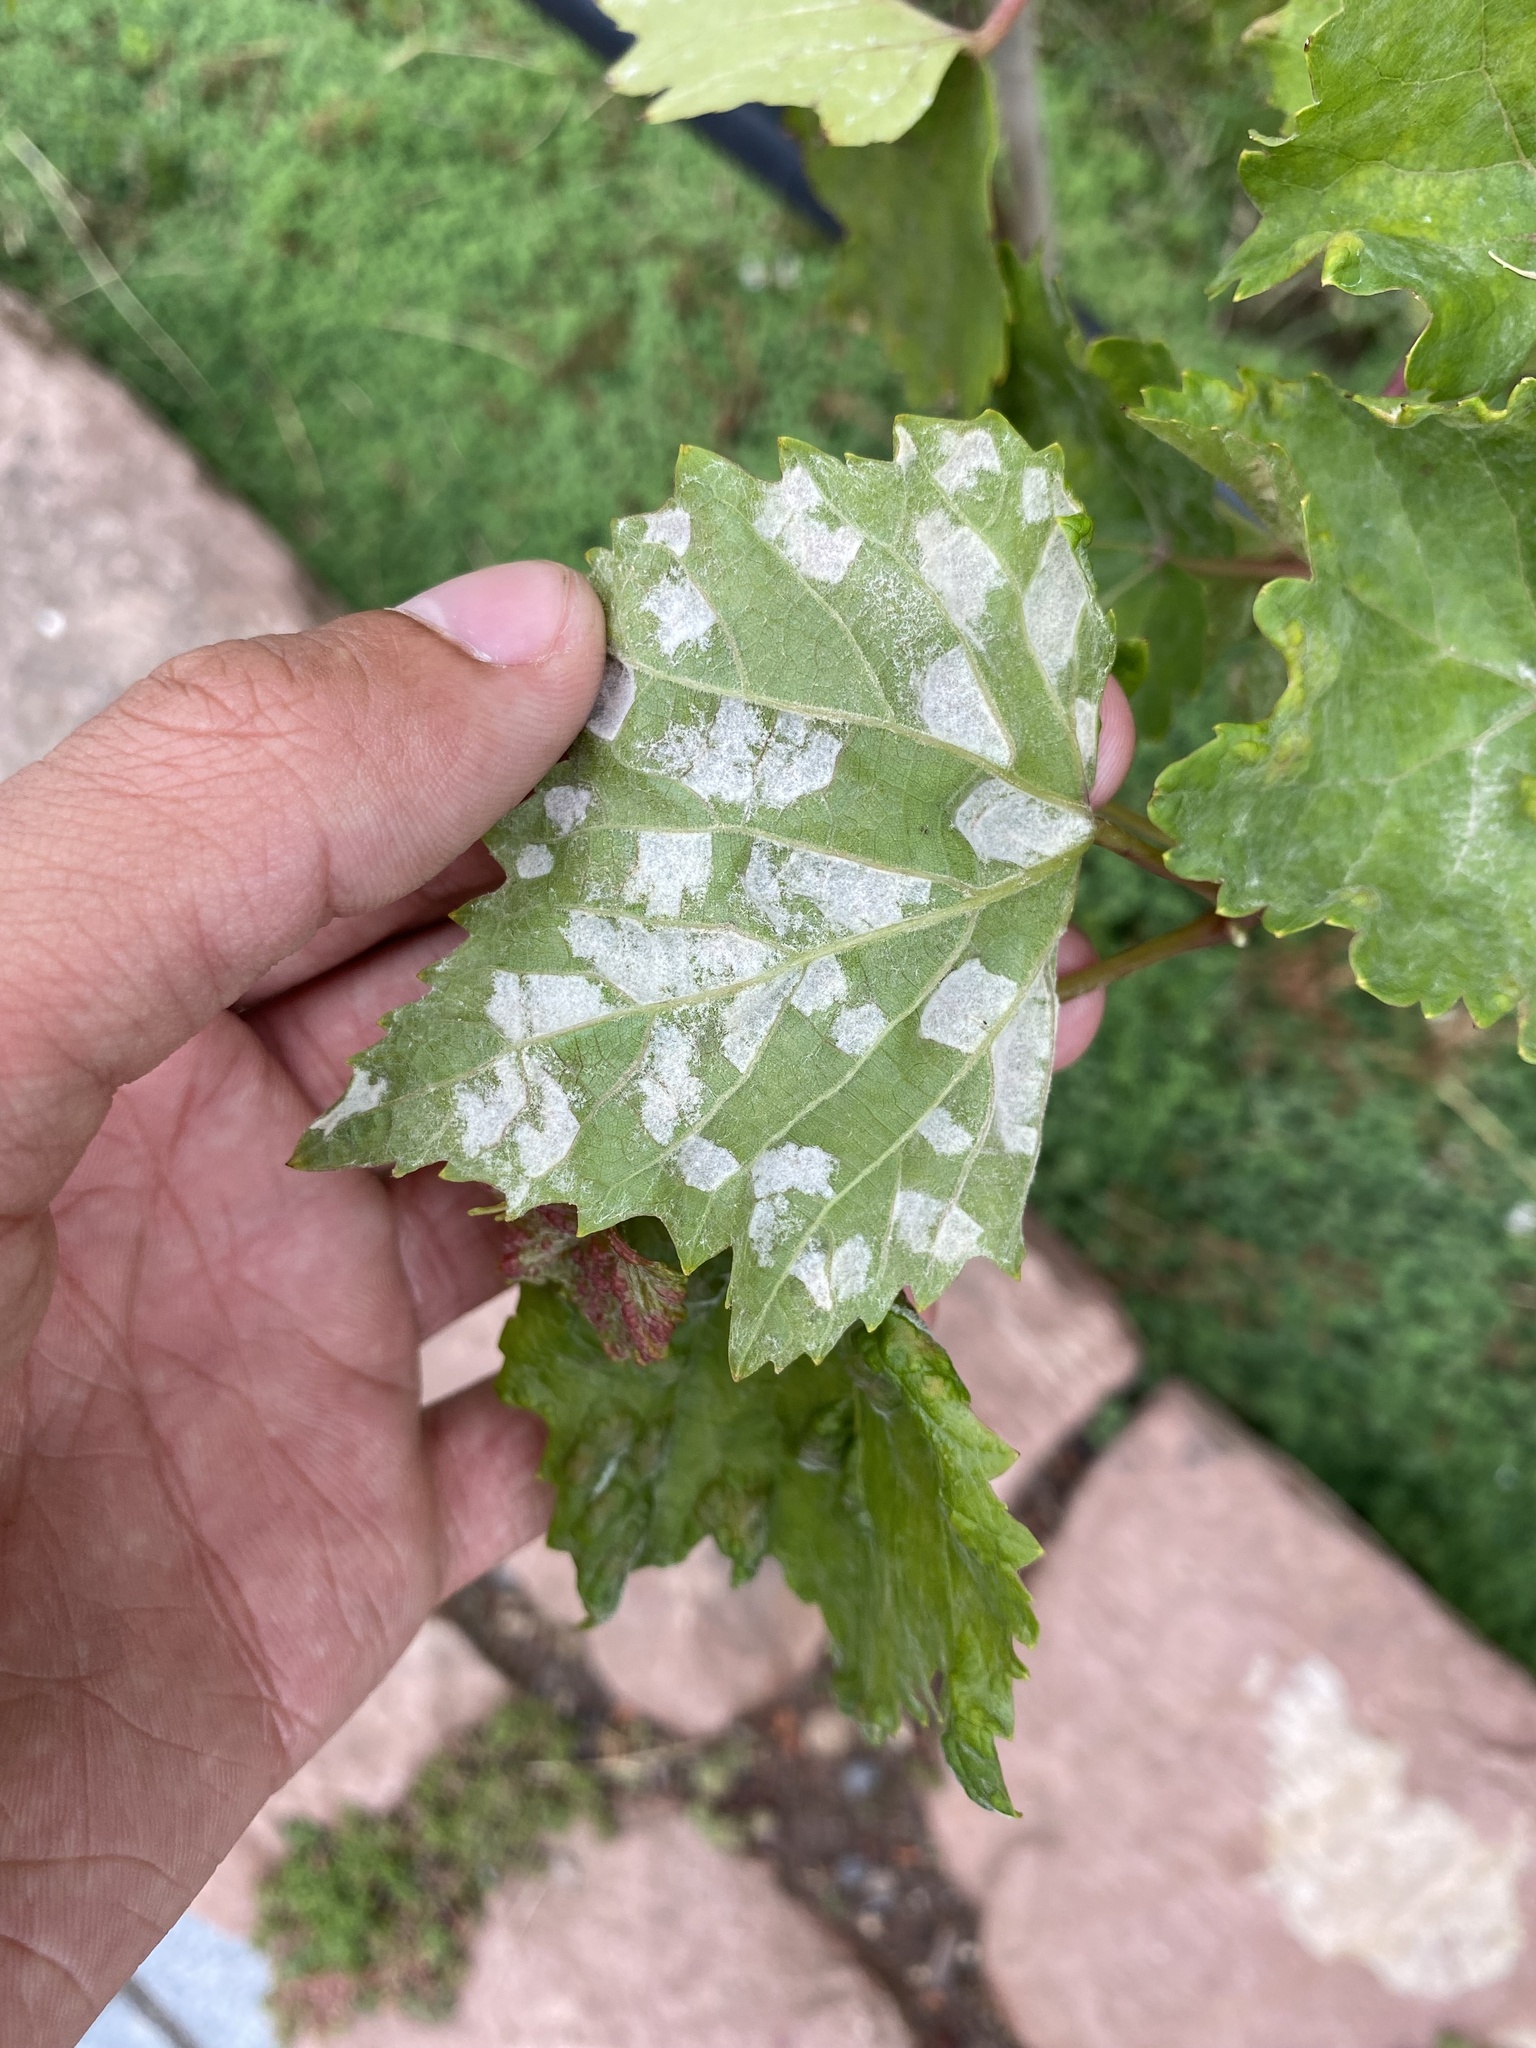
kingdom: Animalia
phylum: Arthropoda
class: Arachnida
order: Trombidiformes
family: Eriophyidae
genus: Colomerus
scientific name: Colomerus vitis
